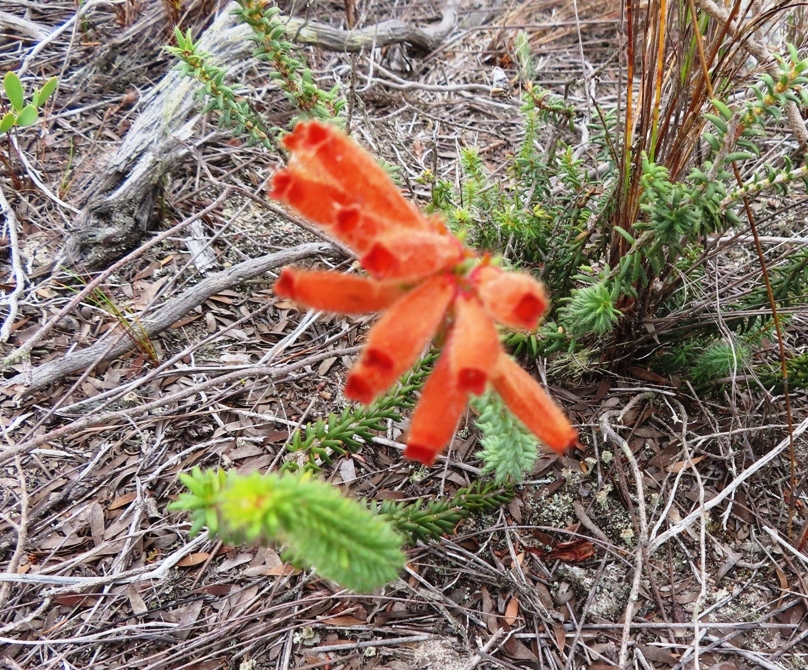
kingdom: Plantae
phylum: Tracheophyta
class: Magnoliopsida
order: Ericales
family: Ericaceae
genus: Erica
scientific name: Erica cerinthoides
